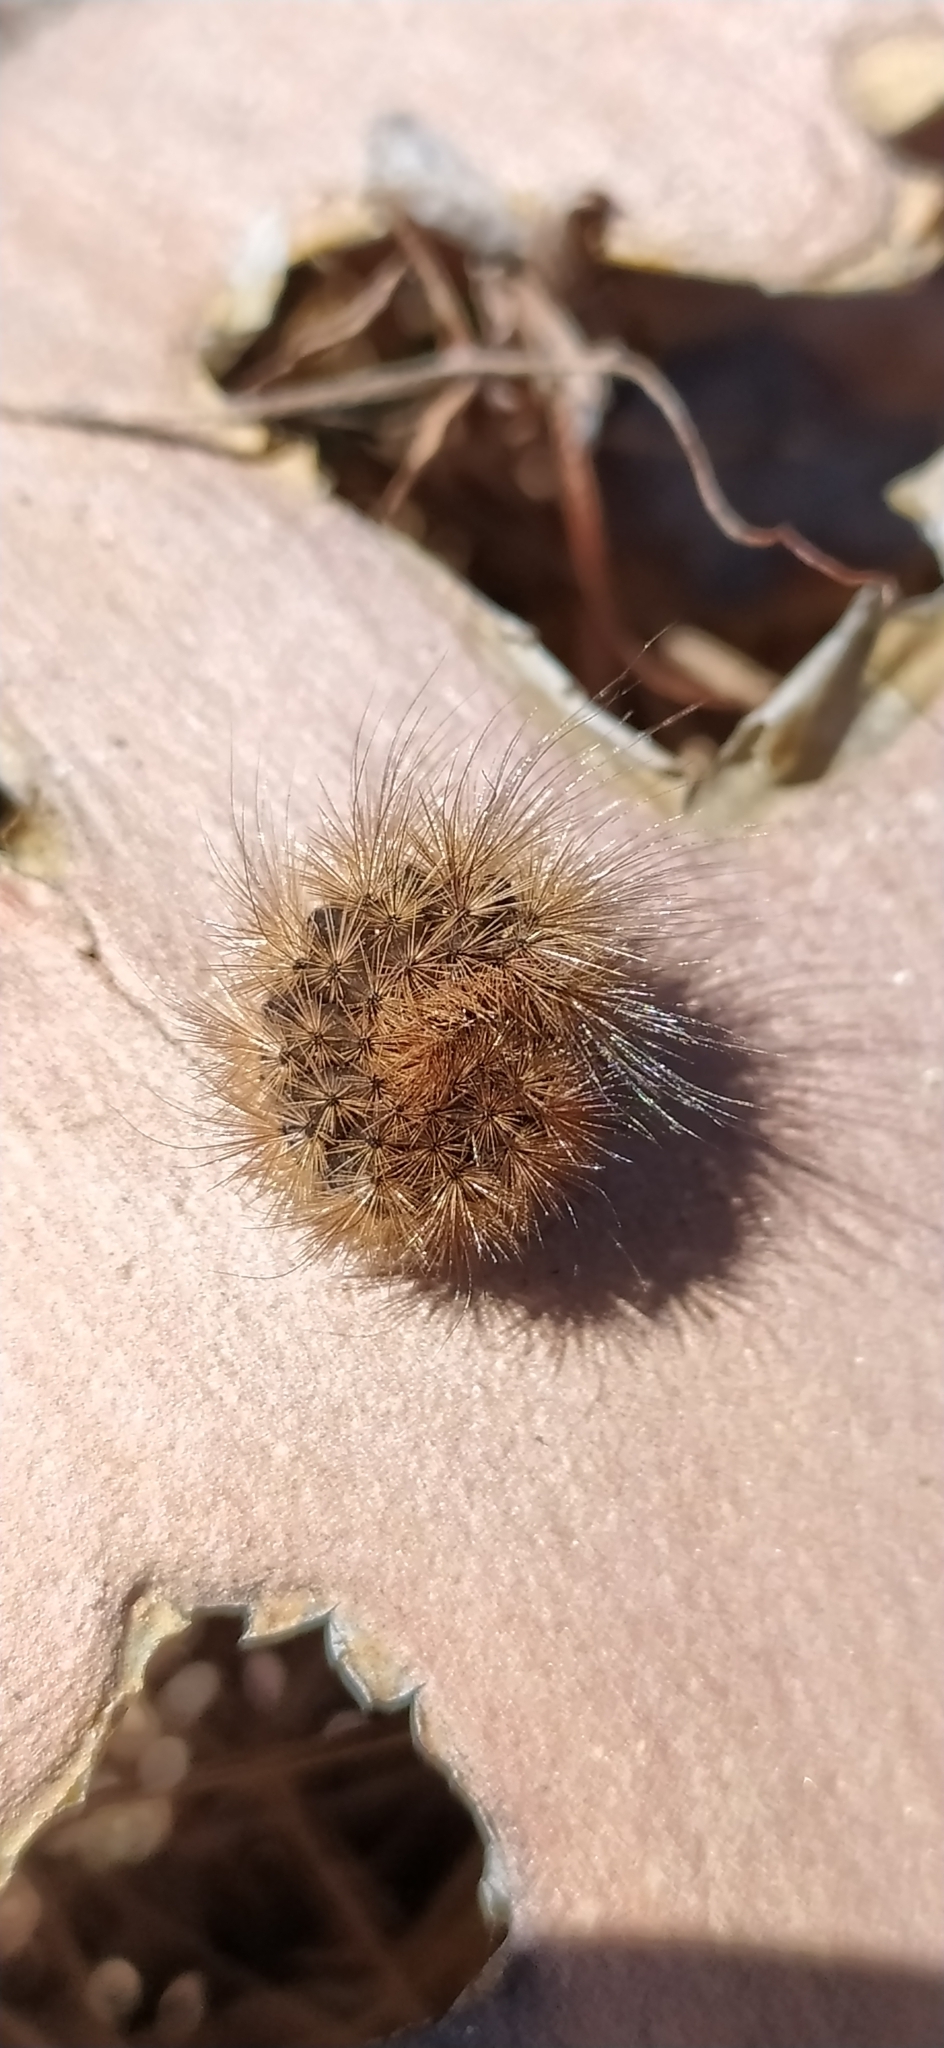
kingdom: Animalia
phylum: Arthropoda
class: Insecta
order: Lepidoptera
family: Erebidae
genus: Phragmatobia
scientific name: Phragmatobia fuliginosa
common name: Ruby tiger
